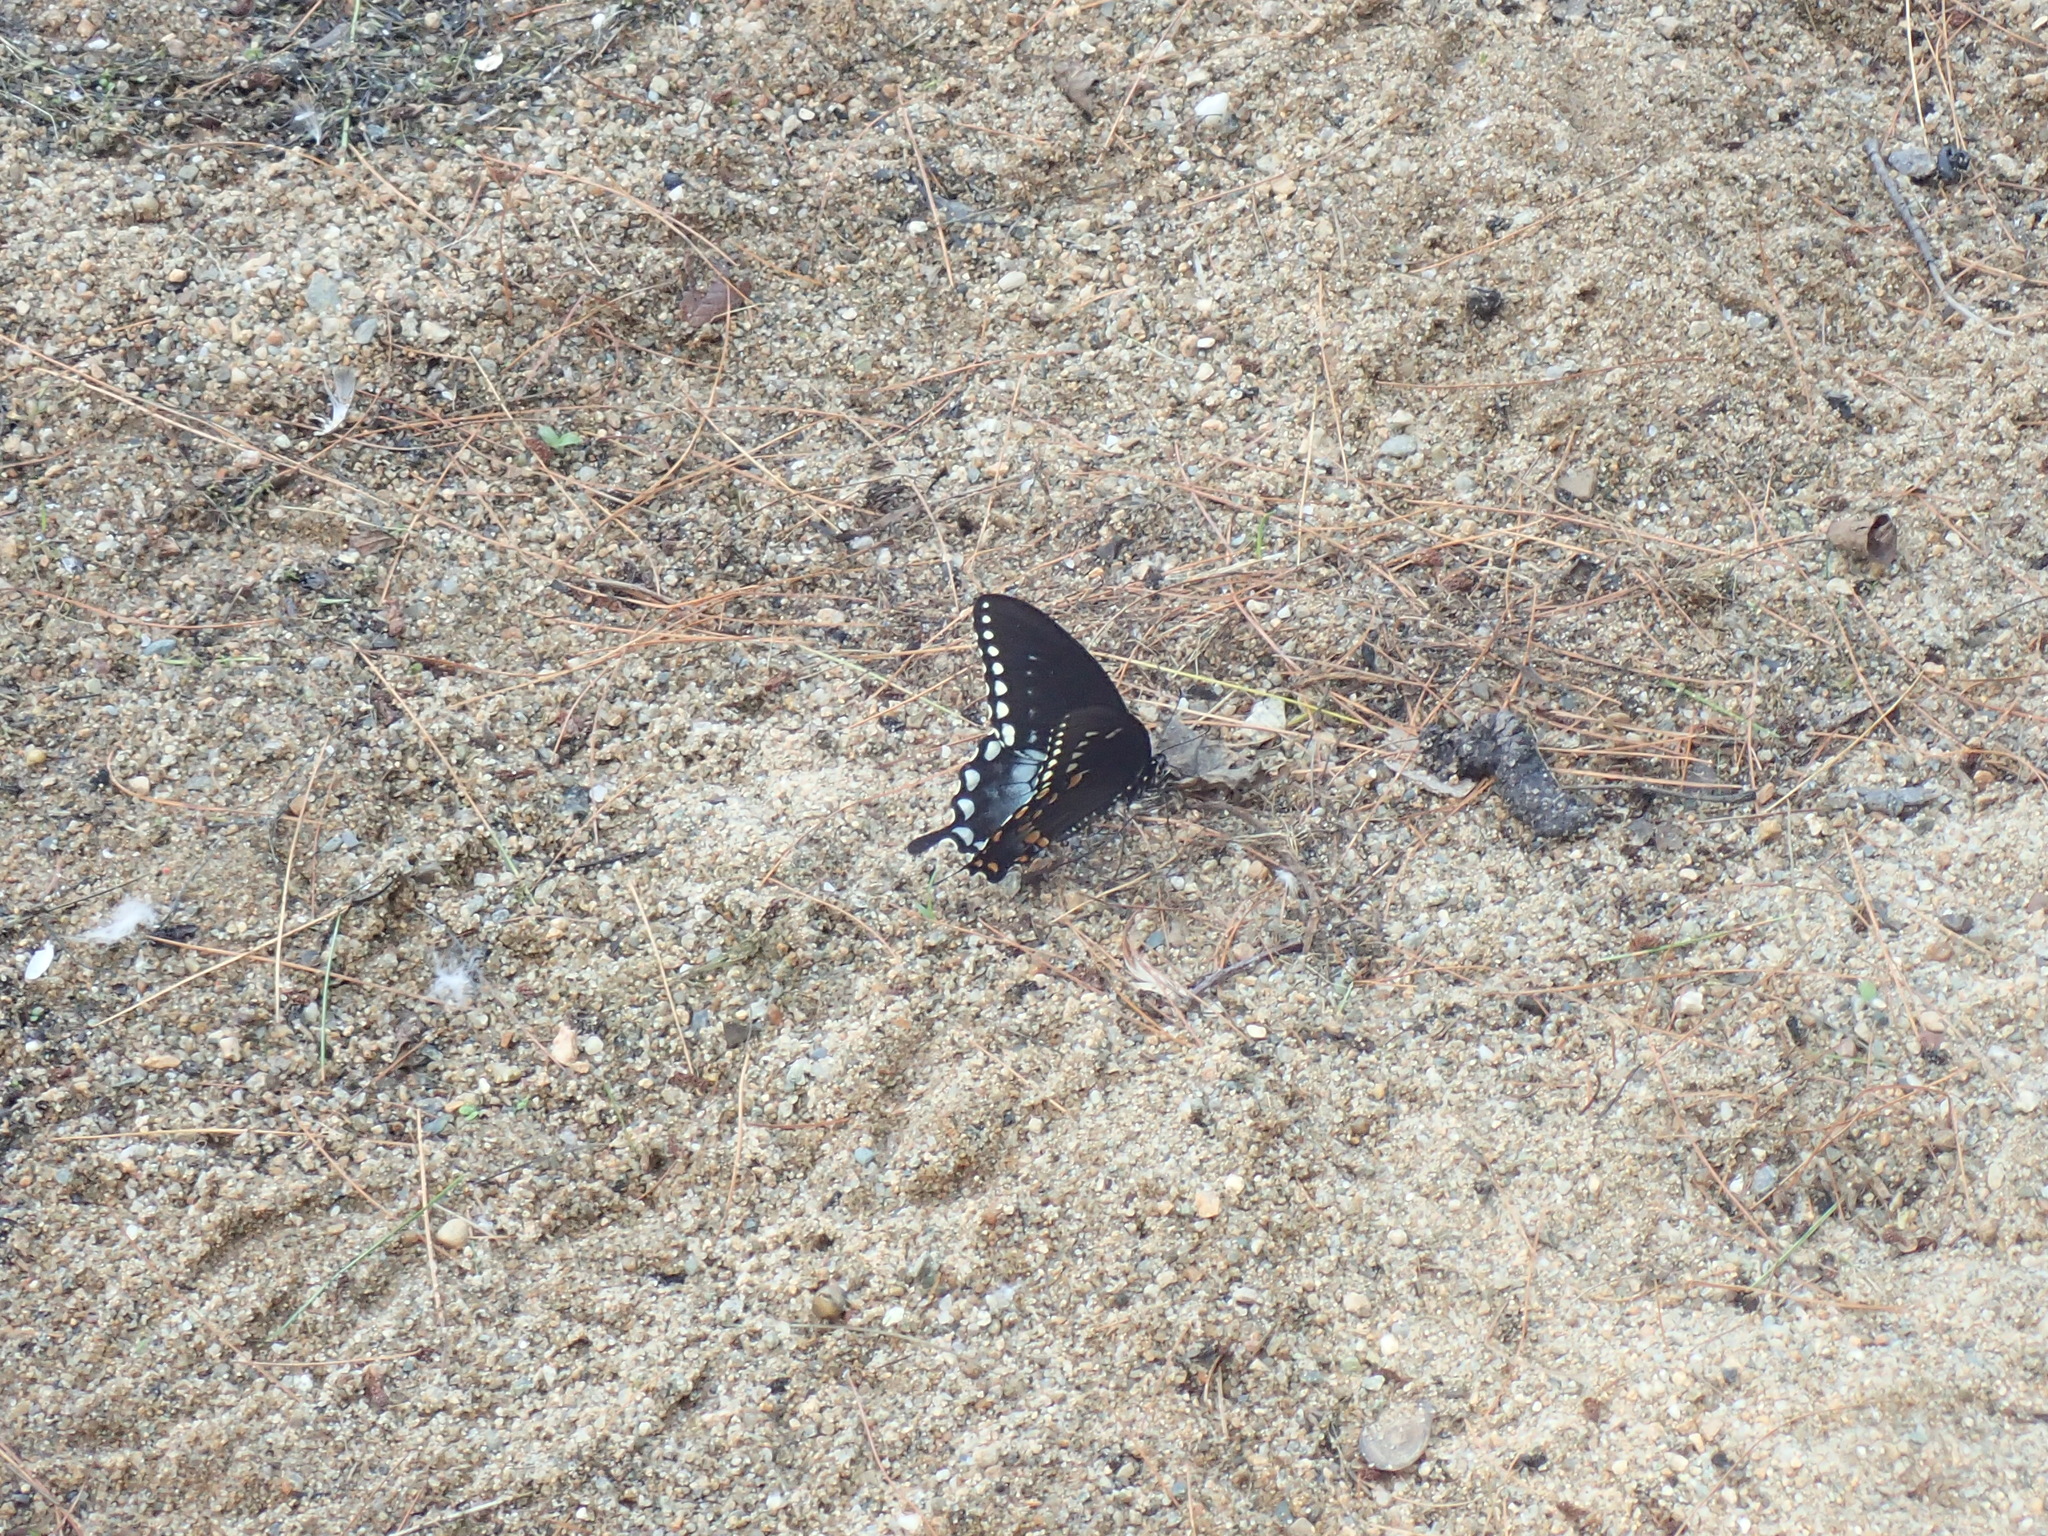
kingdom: Animalia
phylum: Arthropoda
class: Insecta
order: Lepidoptera
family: Papilionidae
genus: Papilio
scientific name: Papilio troilus
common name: Spicebush swallowtail
